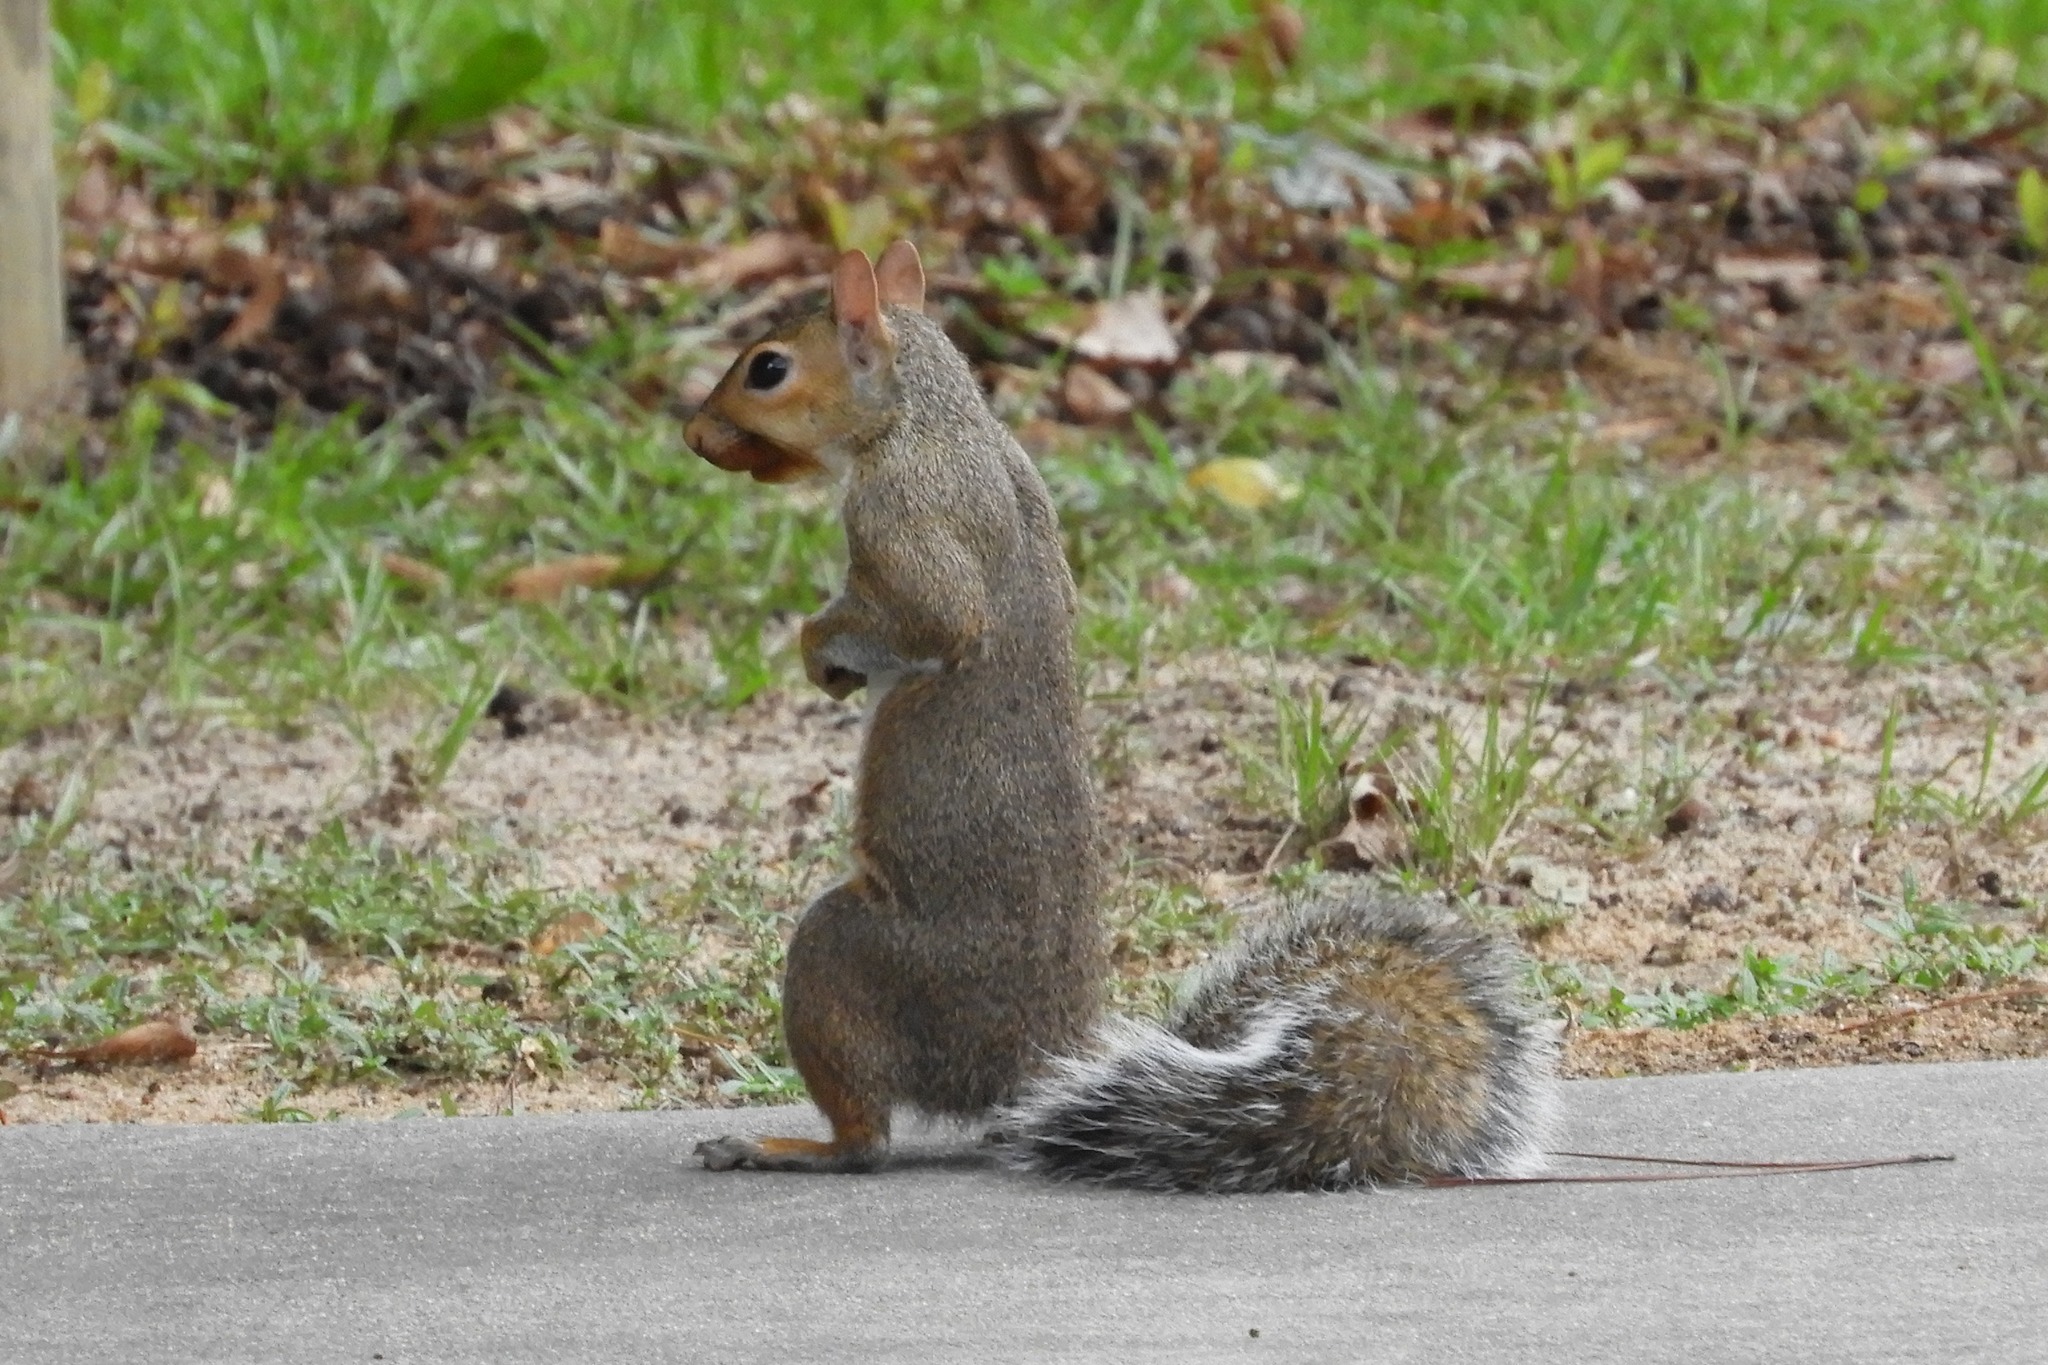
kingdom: Animalia
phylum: Chordata
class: Mammalia
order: Rodentia
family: Sciuridae
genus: Sciurus
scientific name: Sciurus carolinensis
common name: Eastern gray squirrel
